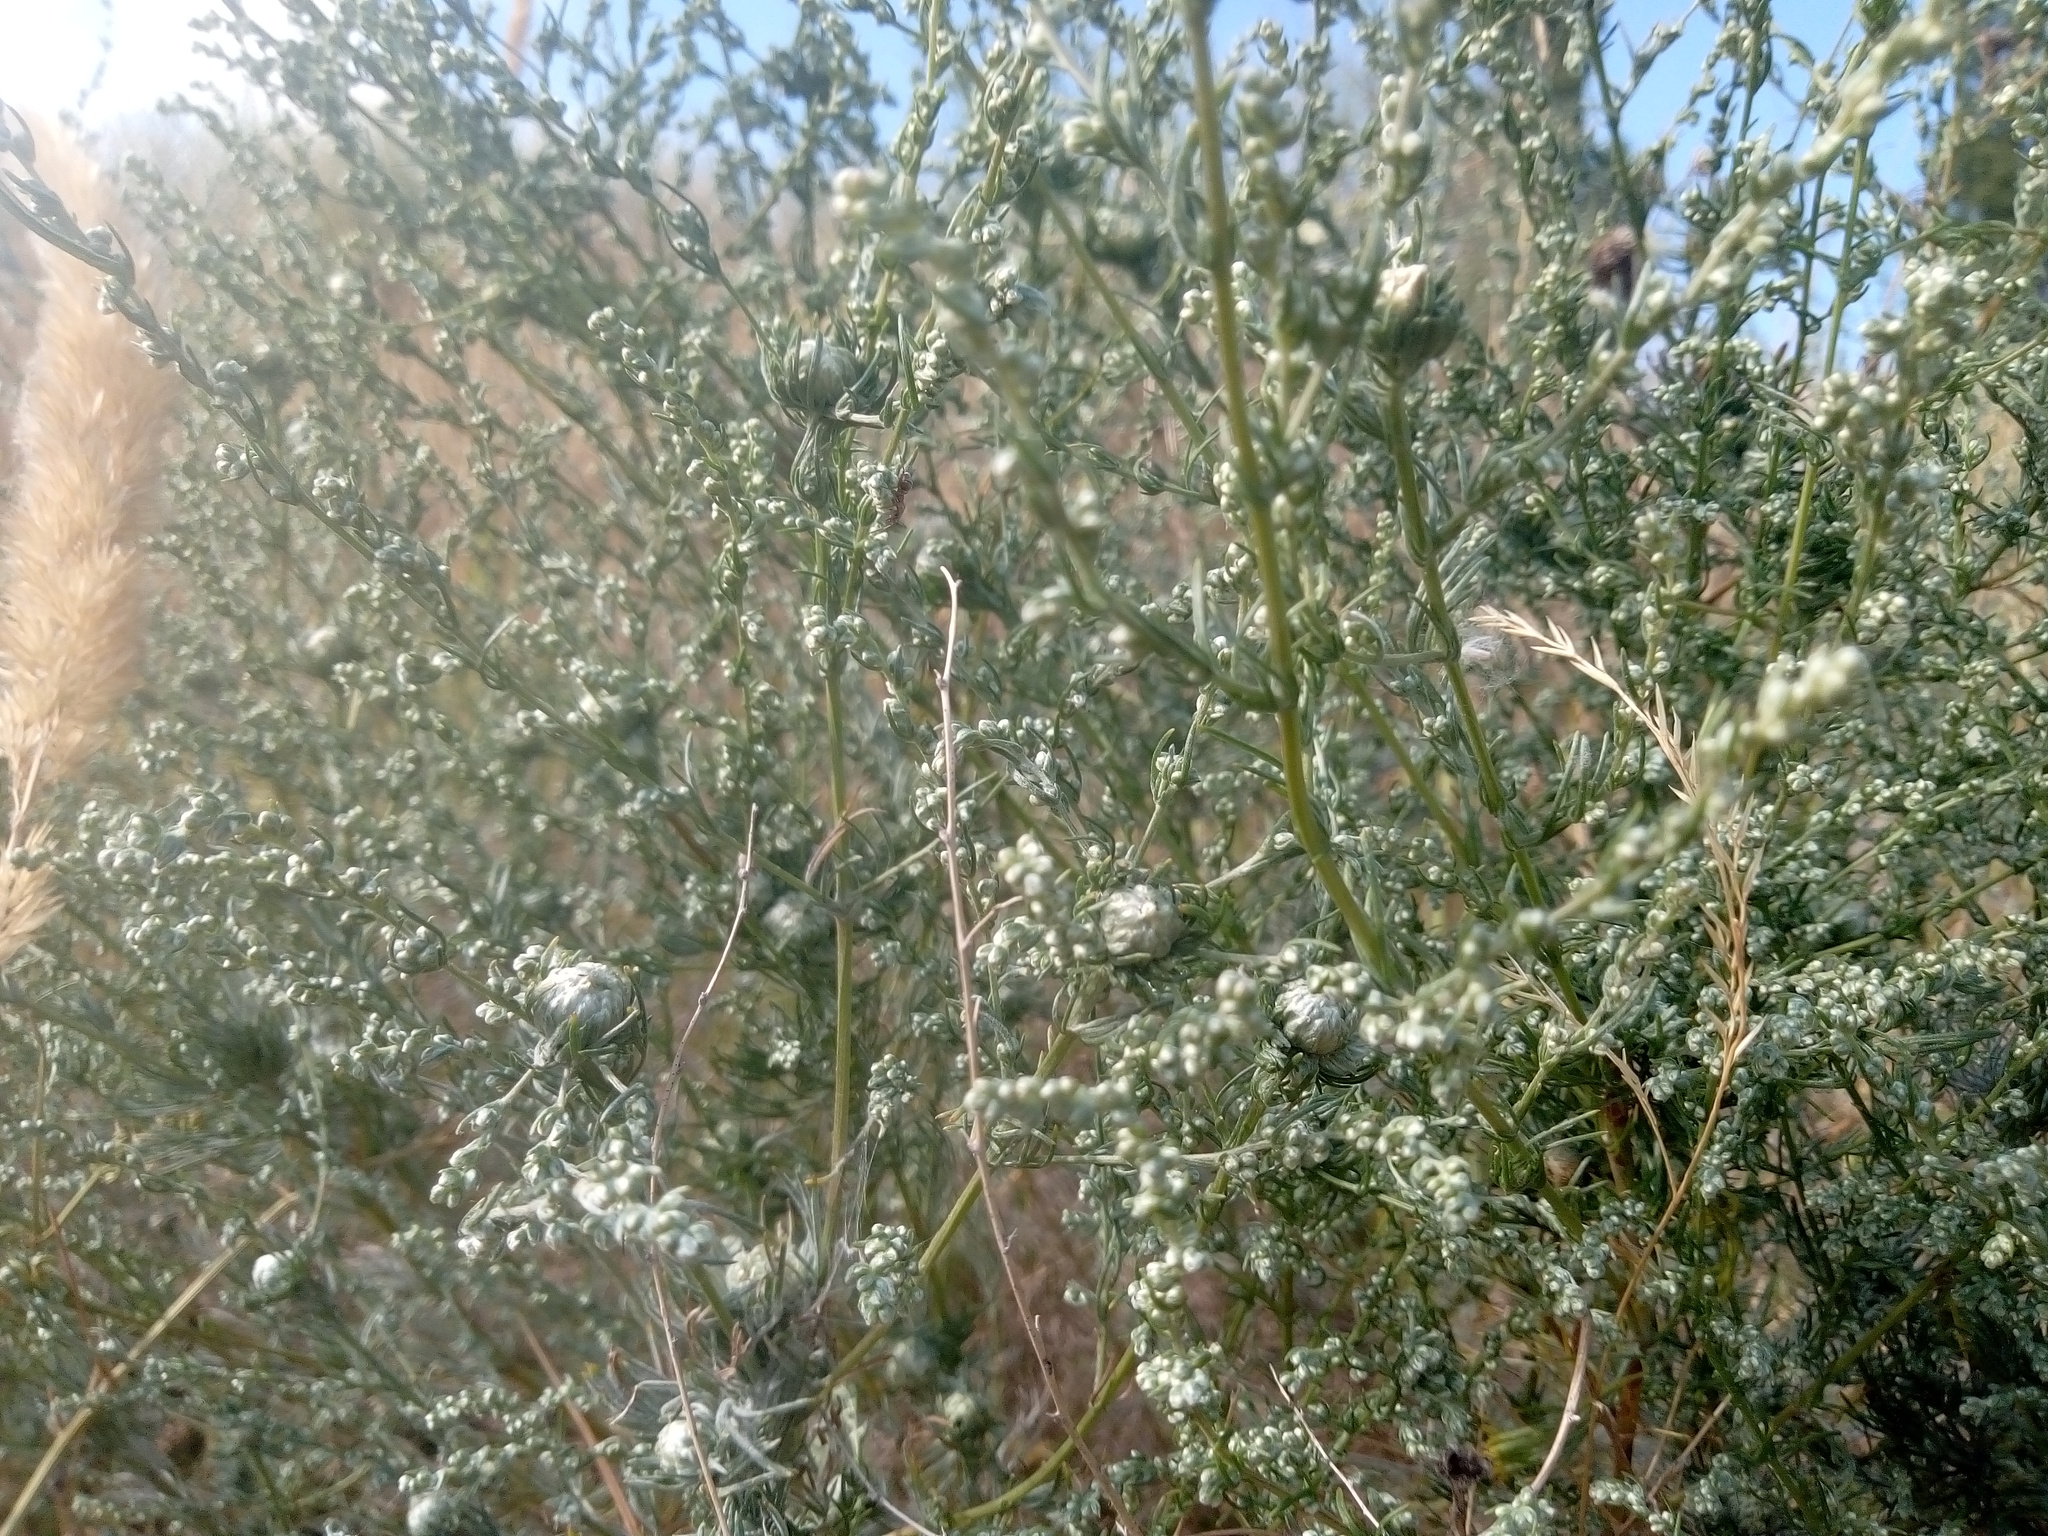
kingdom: Plantae
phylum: Tracheophyta
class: Magnoliopsida
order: Asterales
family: Asteraceae
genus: Artemisia
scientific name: Artemisia marschalliana
